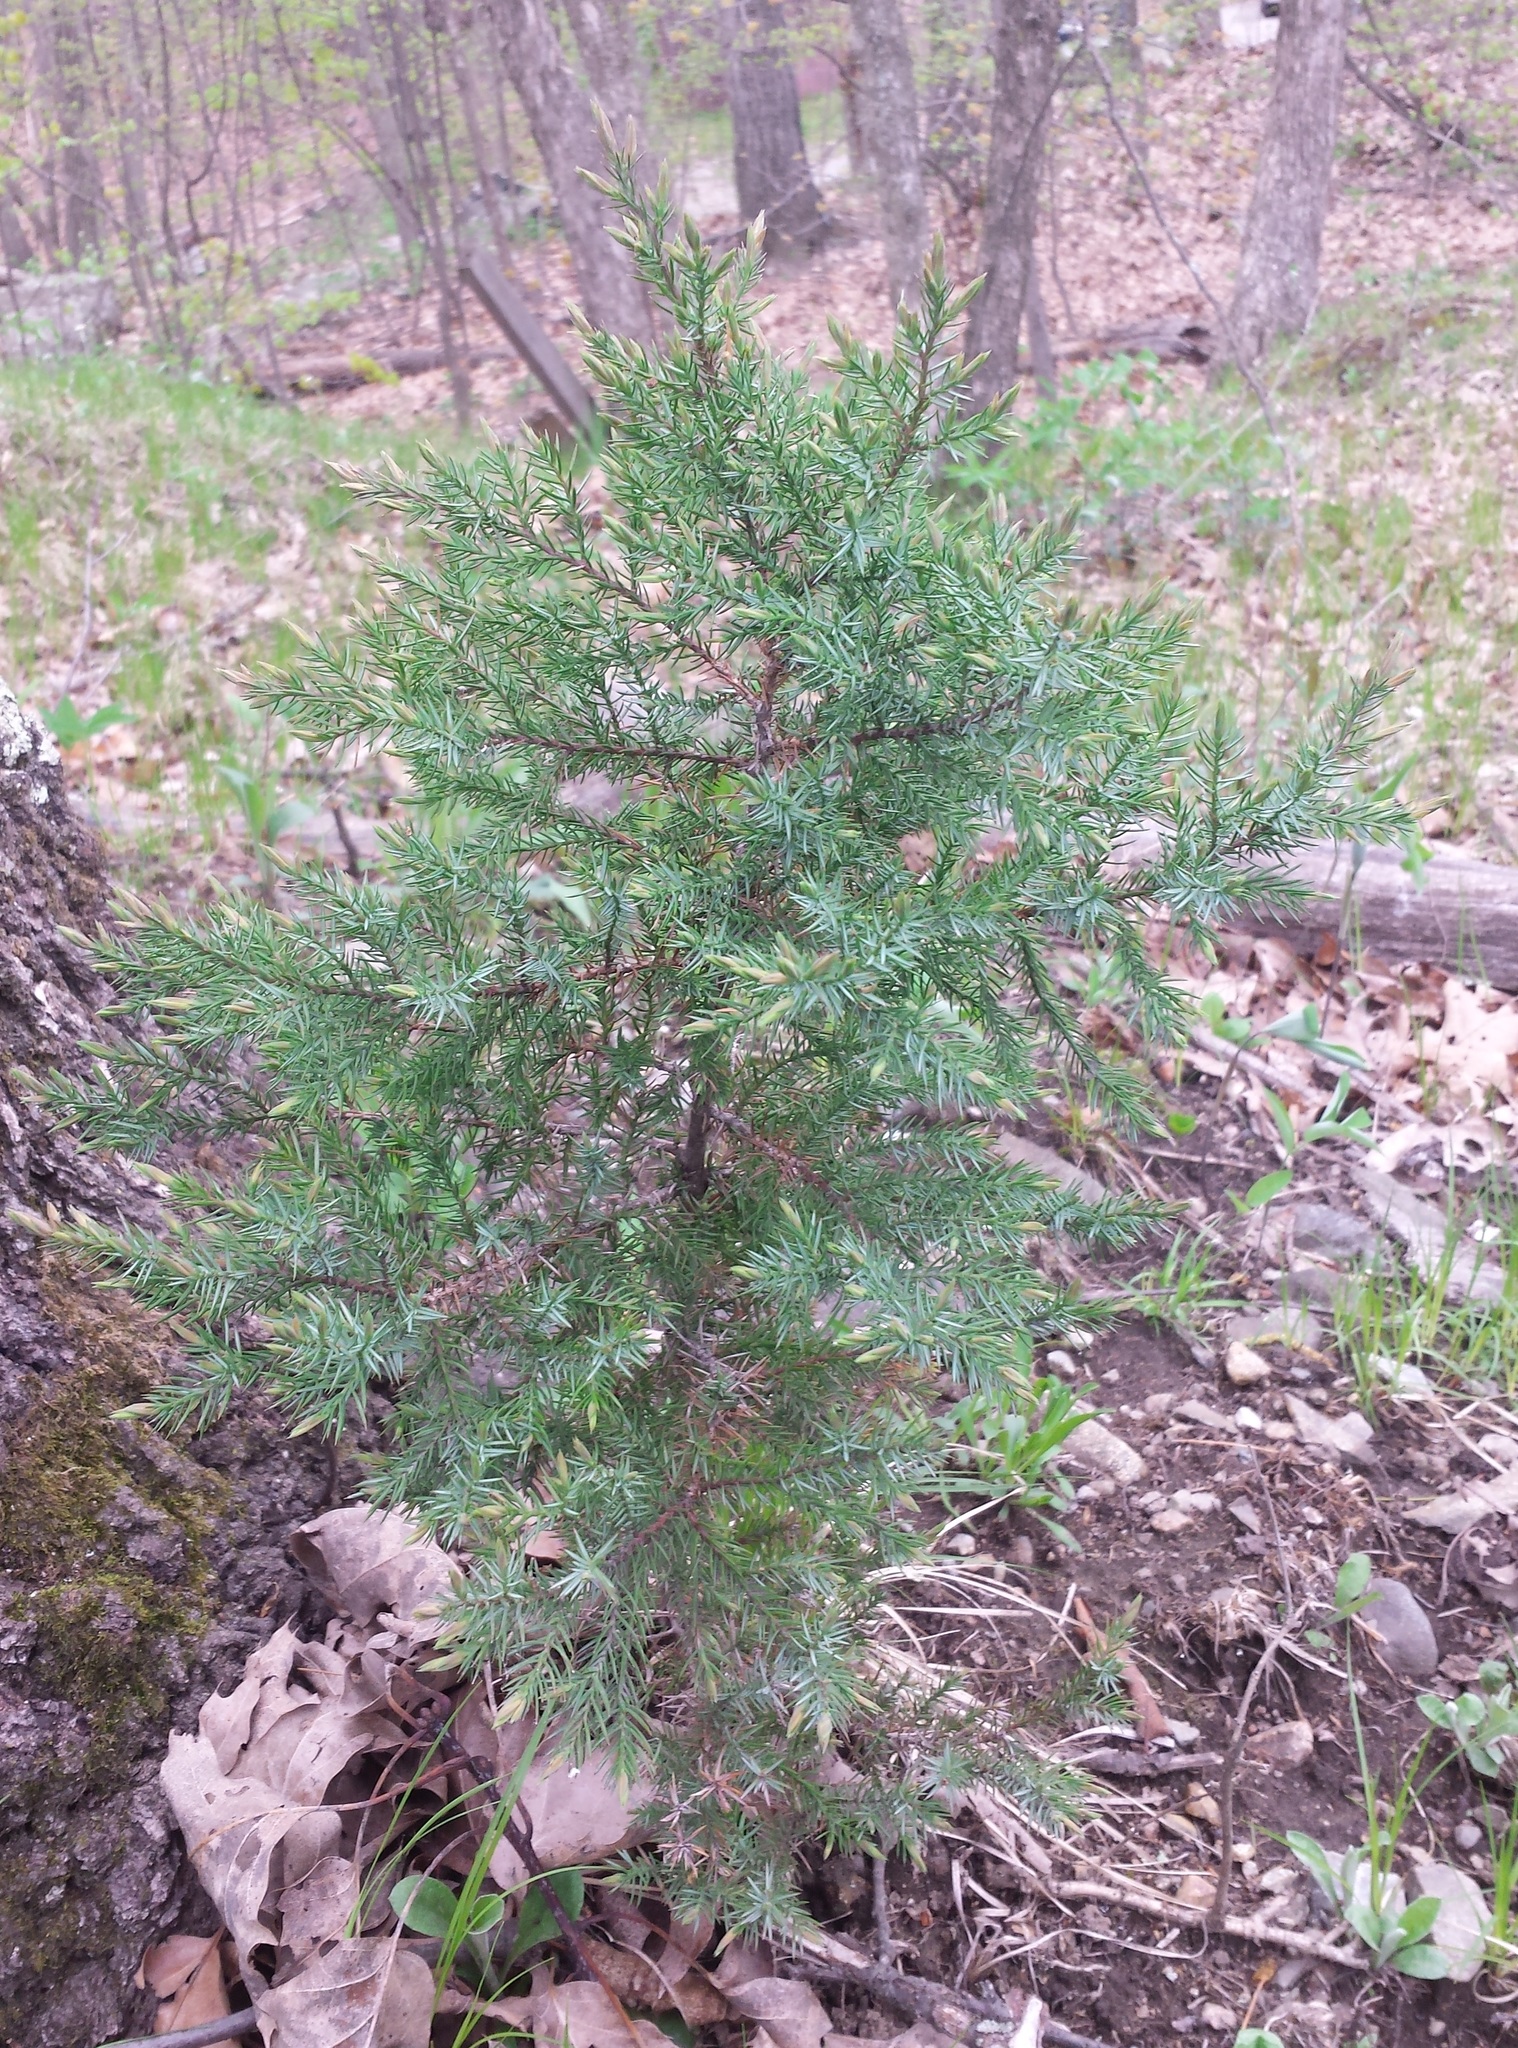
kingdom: Plantae
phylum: Tracheophyta
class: Pinopsida
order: Pinales
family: Cupressaceae
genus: Juniperus
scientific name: Juniperus virginiana
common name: Red juniper
